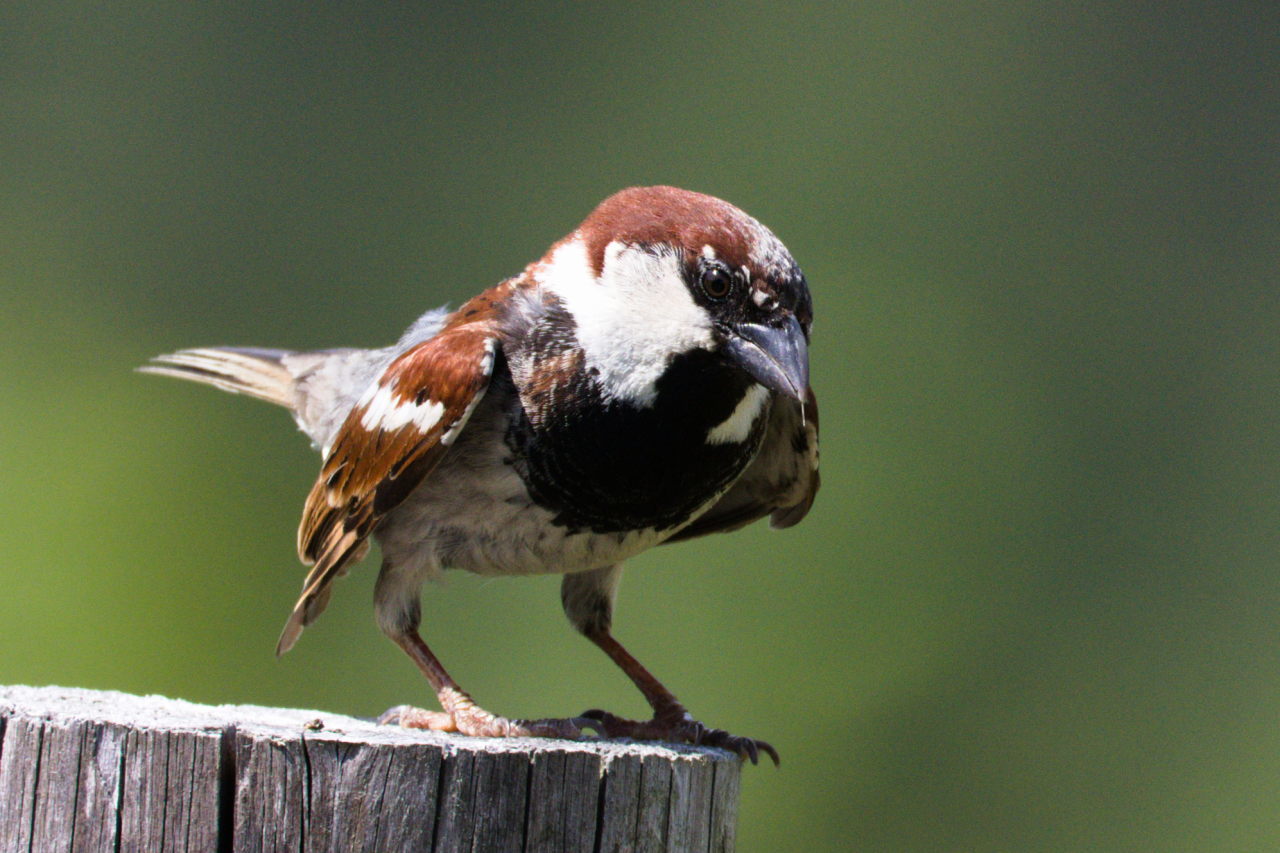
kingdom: Animalia
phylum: Chordata
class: Aves
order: Passeriformes
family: Passeridae
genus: Passer
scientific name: Passer italiae
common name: Italian sparrow
